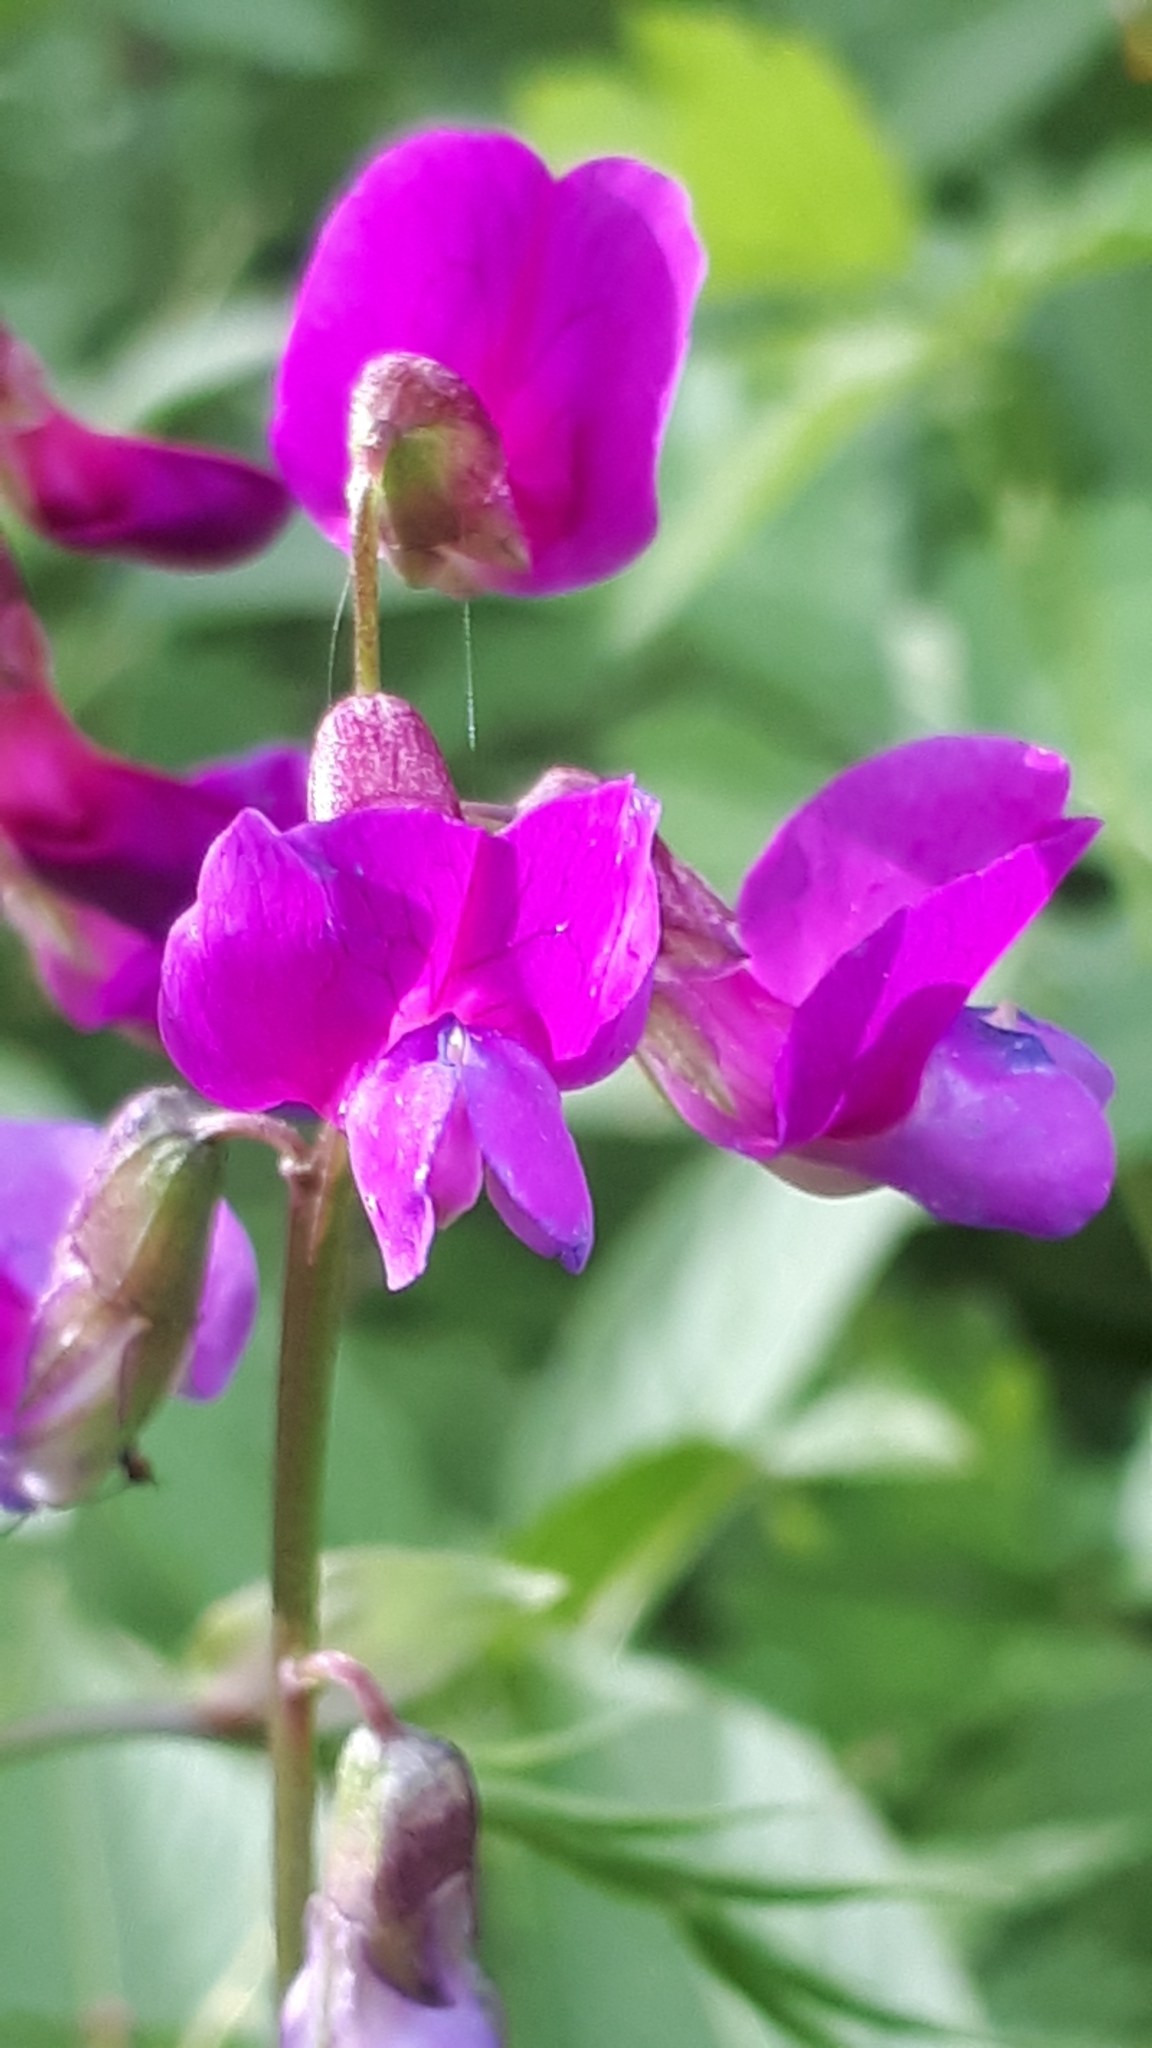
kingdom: Plantae
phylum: Tracheophyta
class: Magnoliopsida
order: Fabales
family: Fabaceae
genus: Lathyrus
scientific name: Lathyrus vernus
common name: Spring pea
